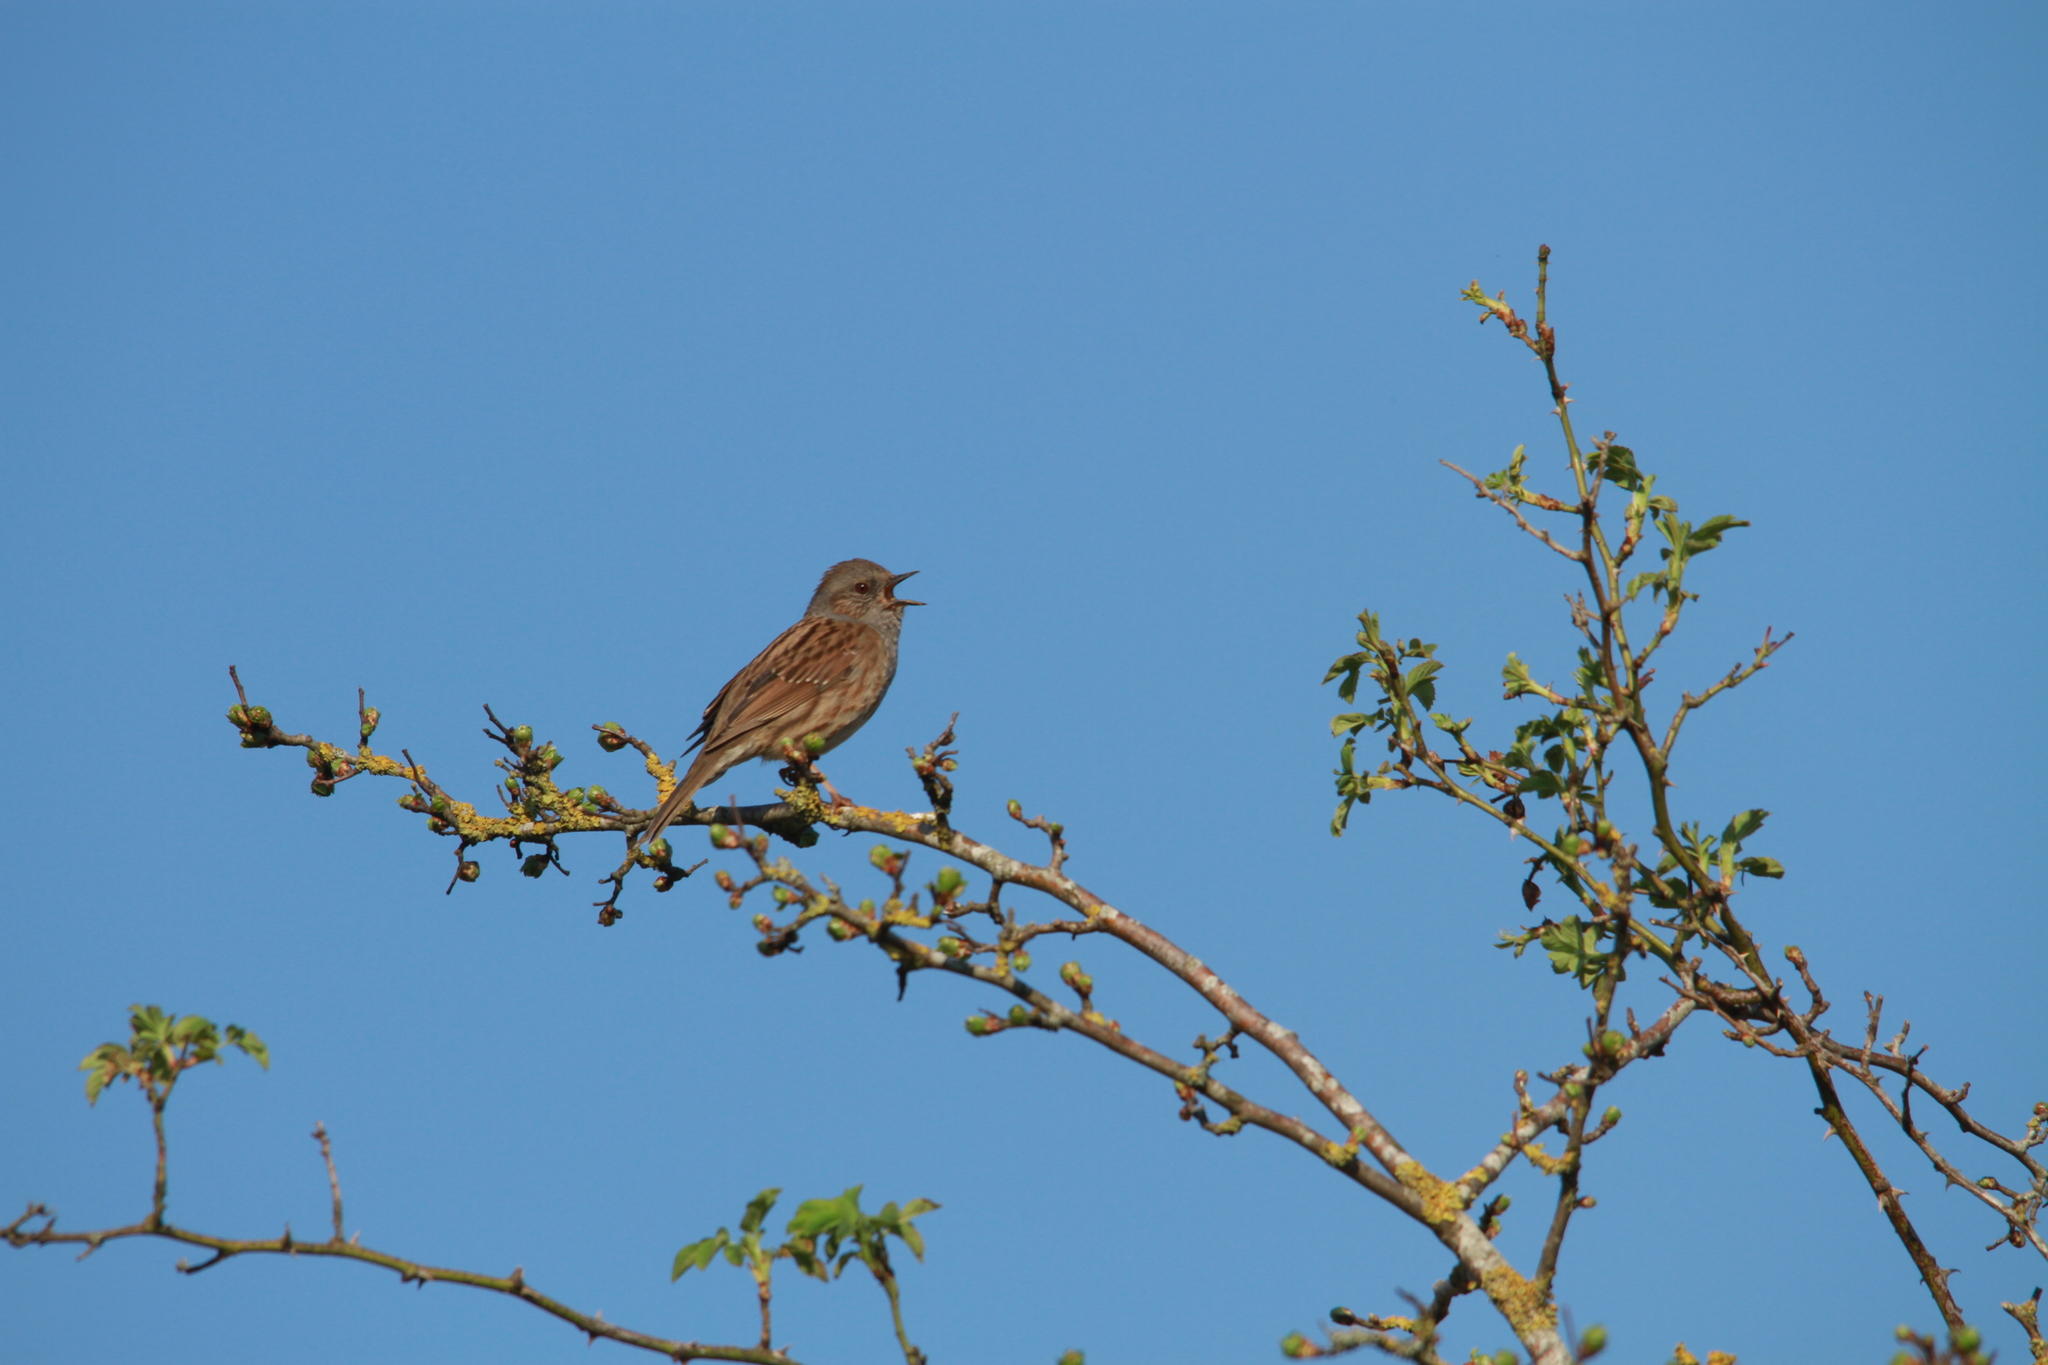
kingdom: Animalia
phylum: Chordata
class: Aves
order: Passeriformes
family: Prunellidae
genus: Prunella
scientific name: Prunella modularis
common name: Dunnock
